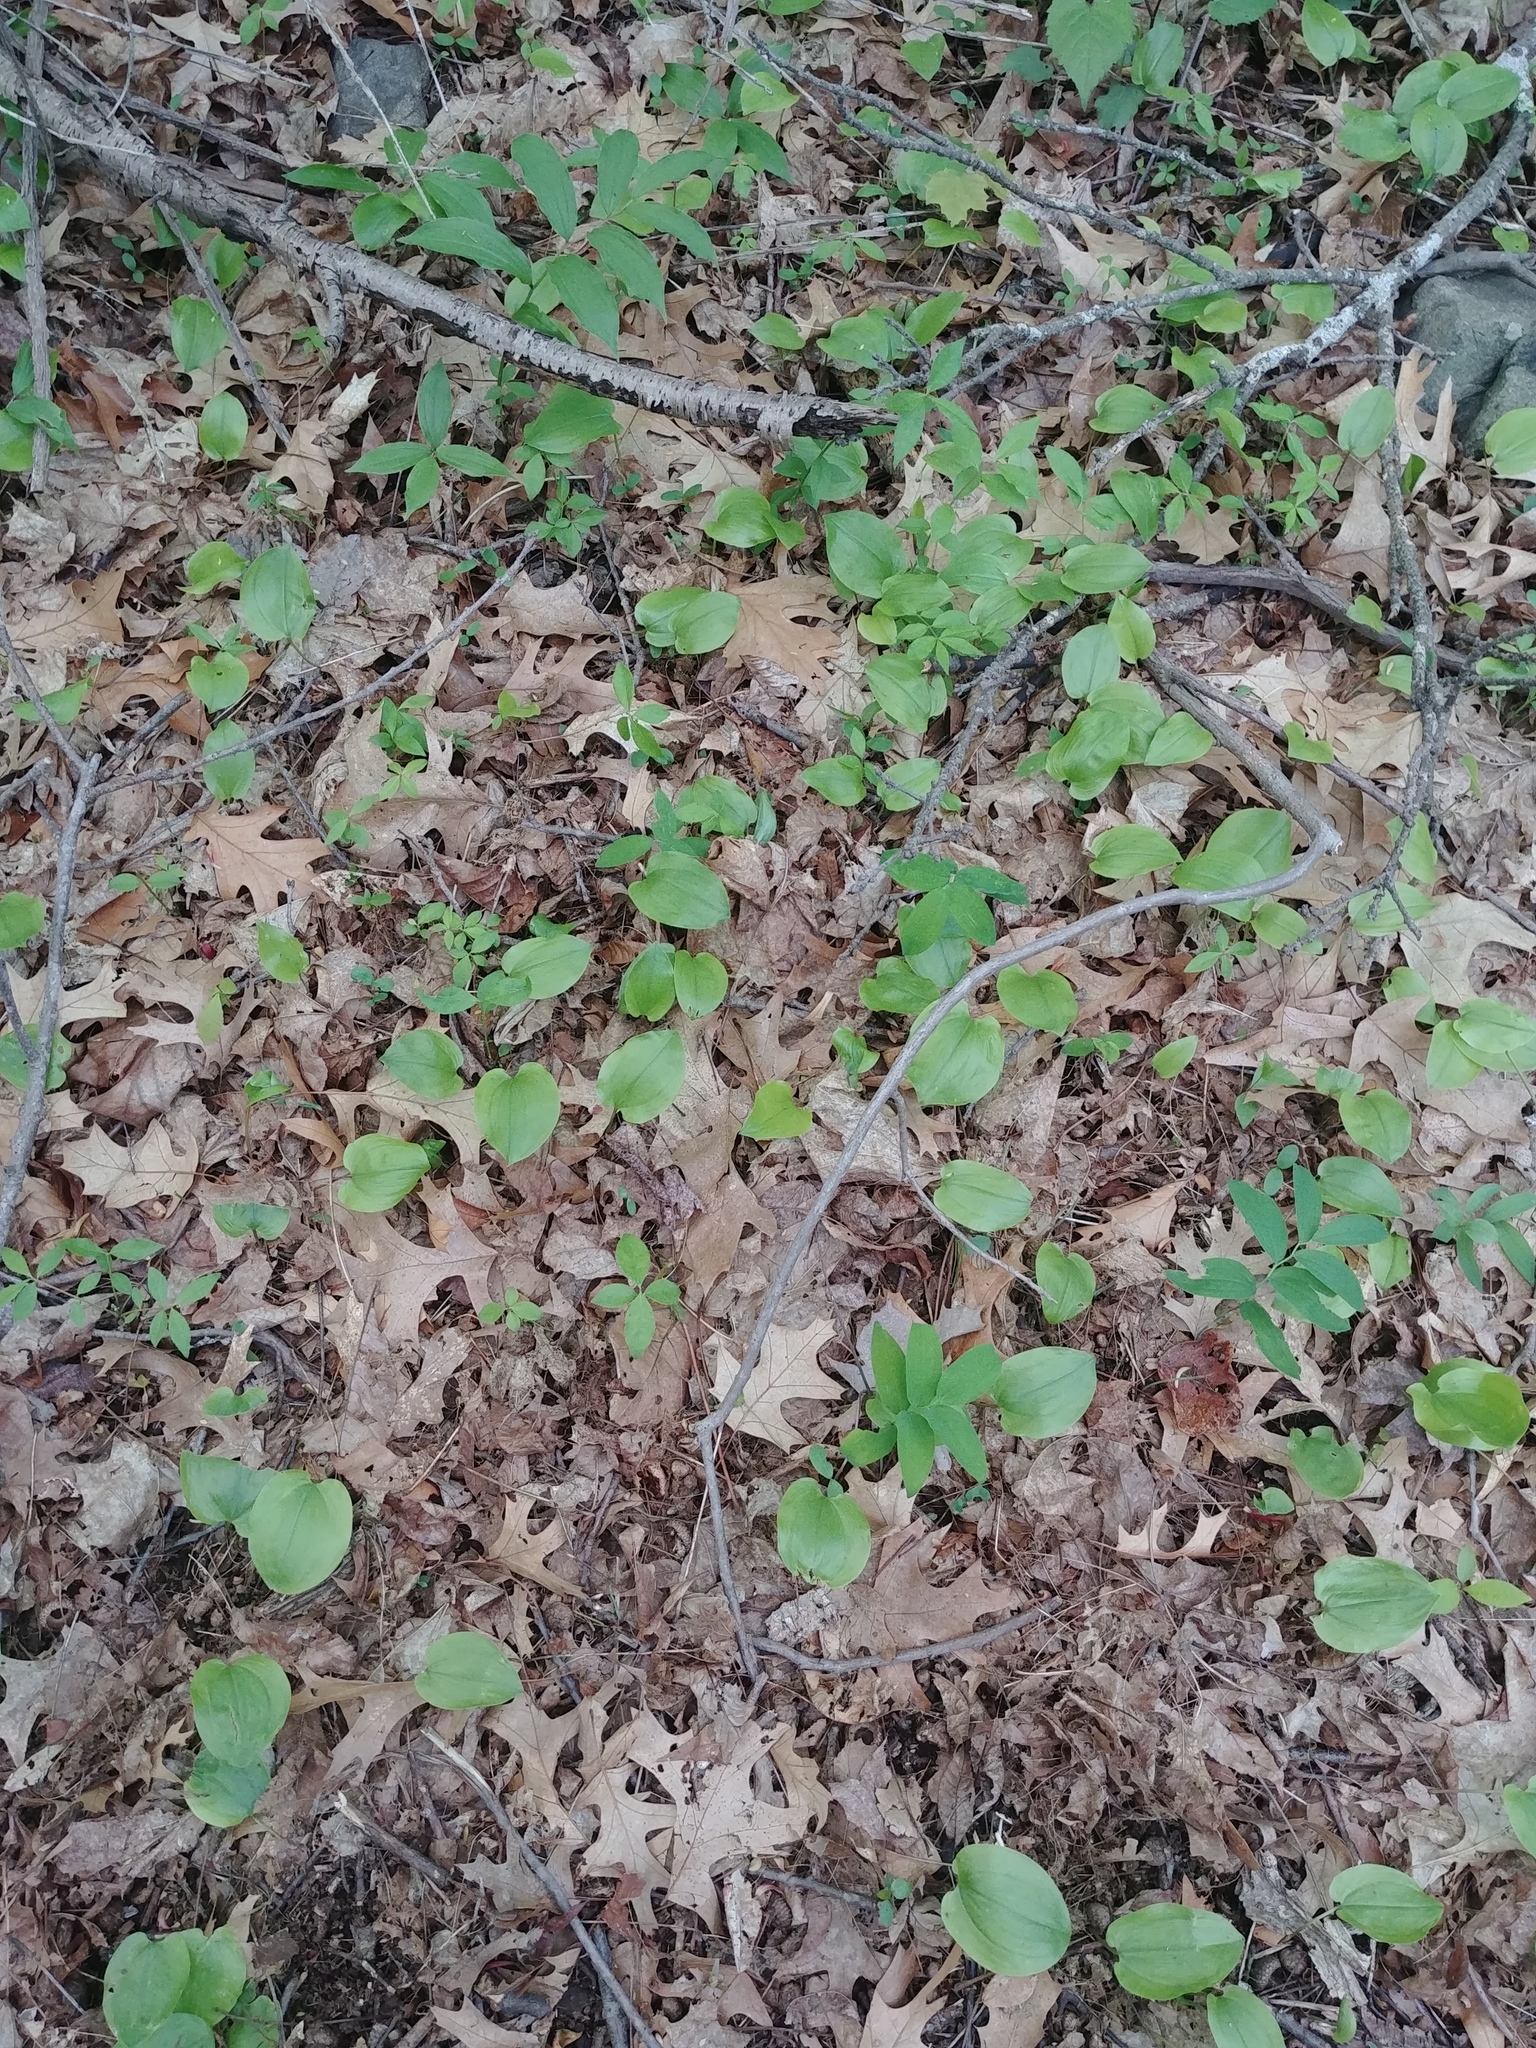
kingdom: Plantae
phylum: Tracheophyta
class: Liliopsida
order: Asparagales
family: Asparagaceae
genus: Maianthemum
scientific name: Maianthemum canadense
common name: False lily-of-the-valley
